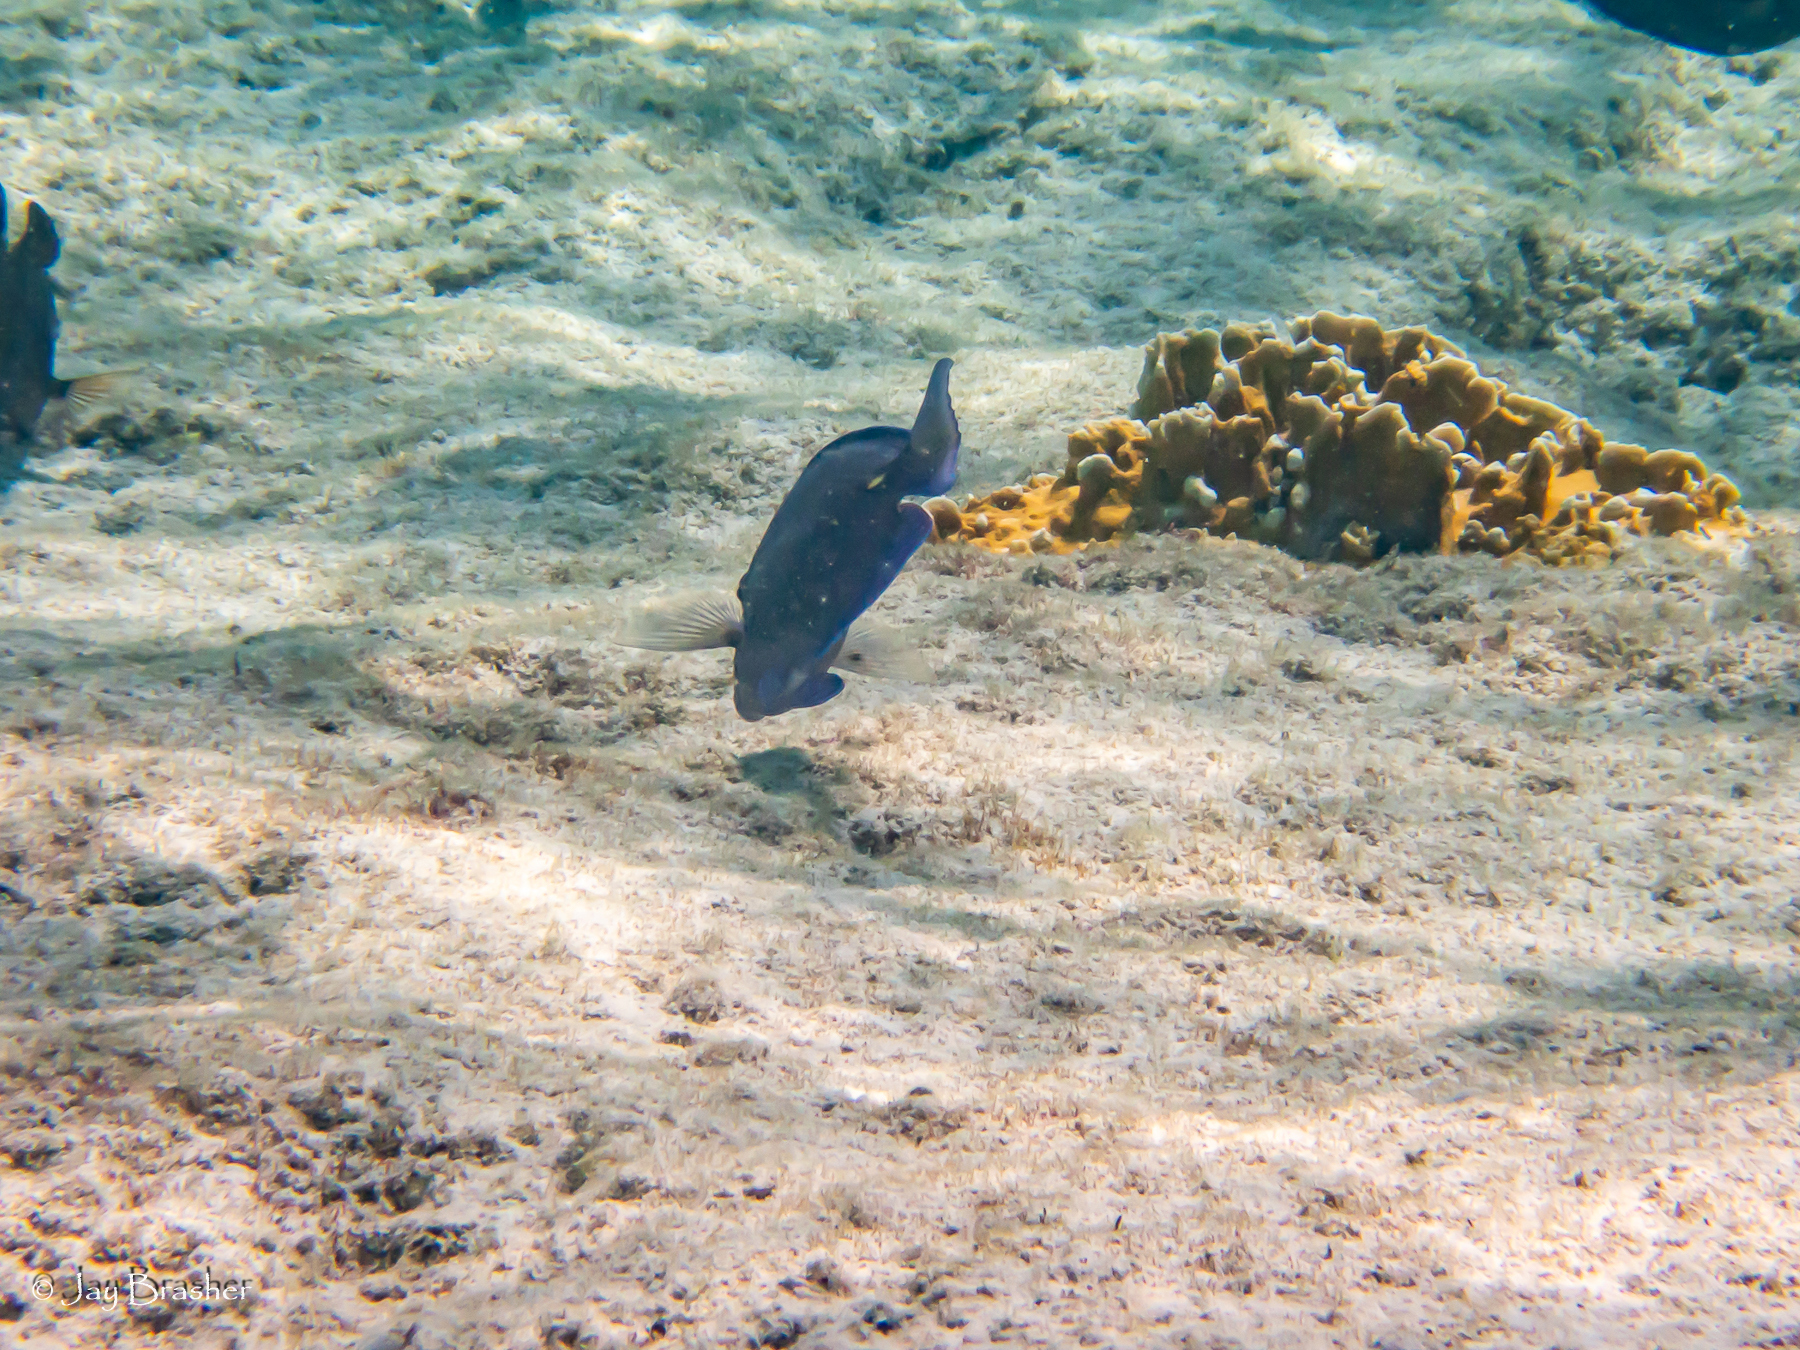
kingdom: Animalia
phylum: Chordata
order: Perciformes
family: Acanthuridae
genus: Acanthurus
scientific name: Acanthurus coeruleus
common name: Blue tang
